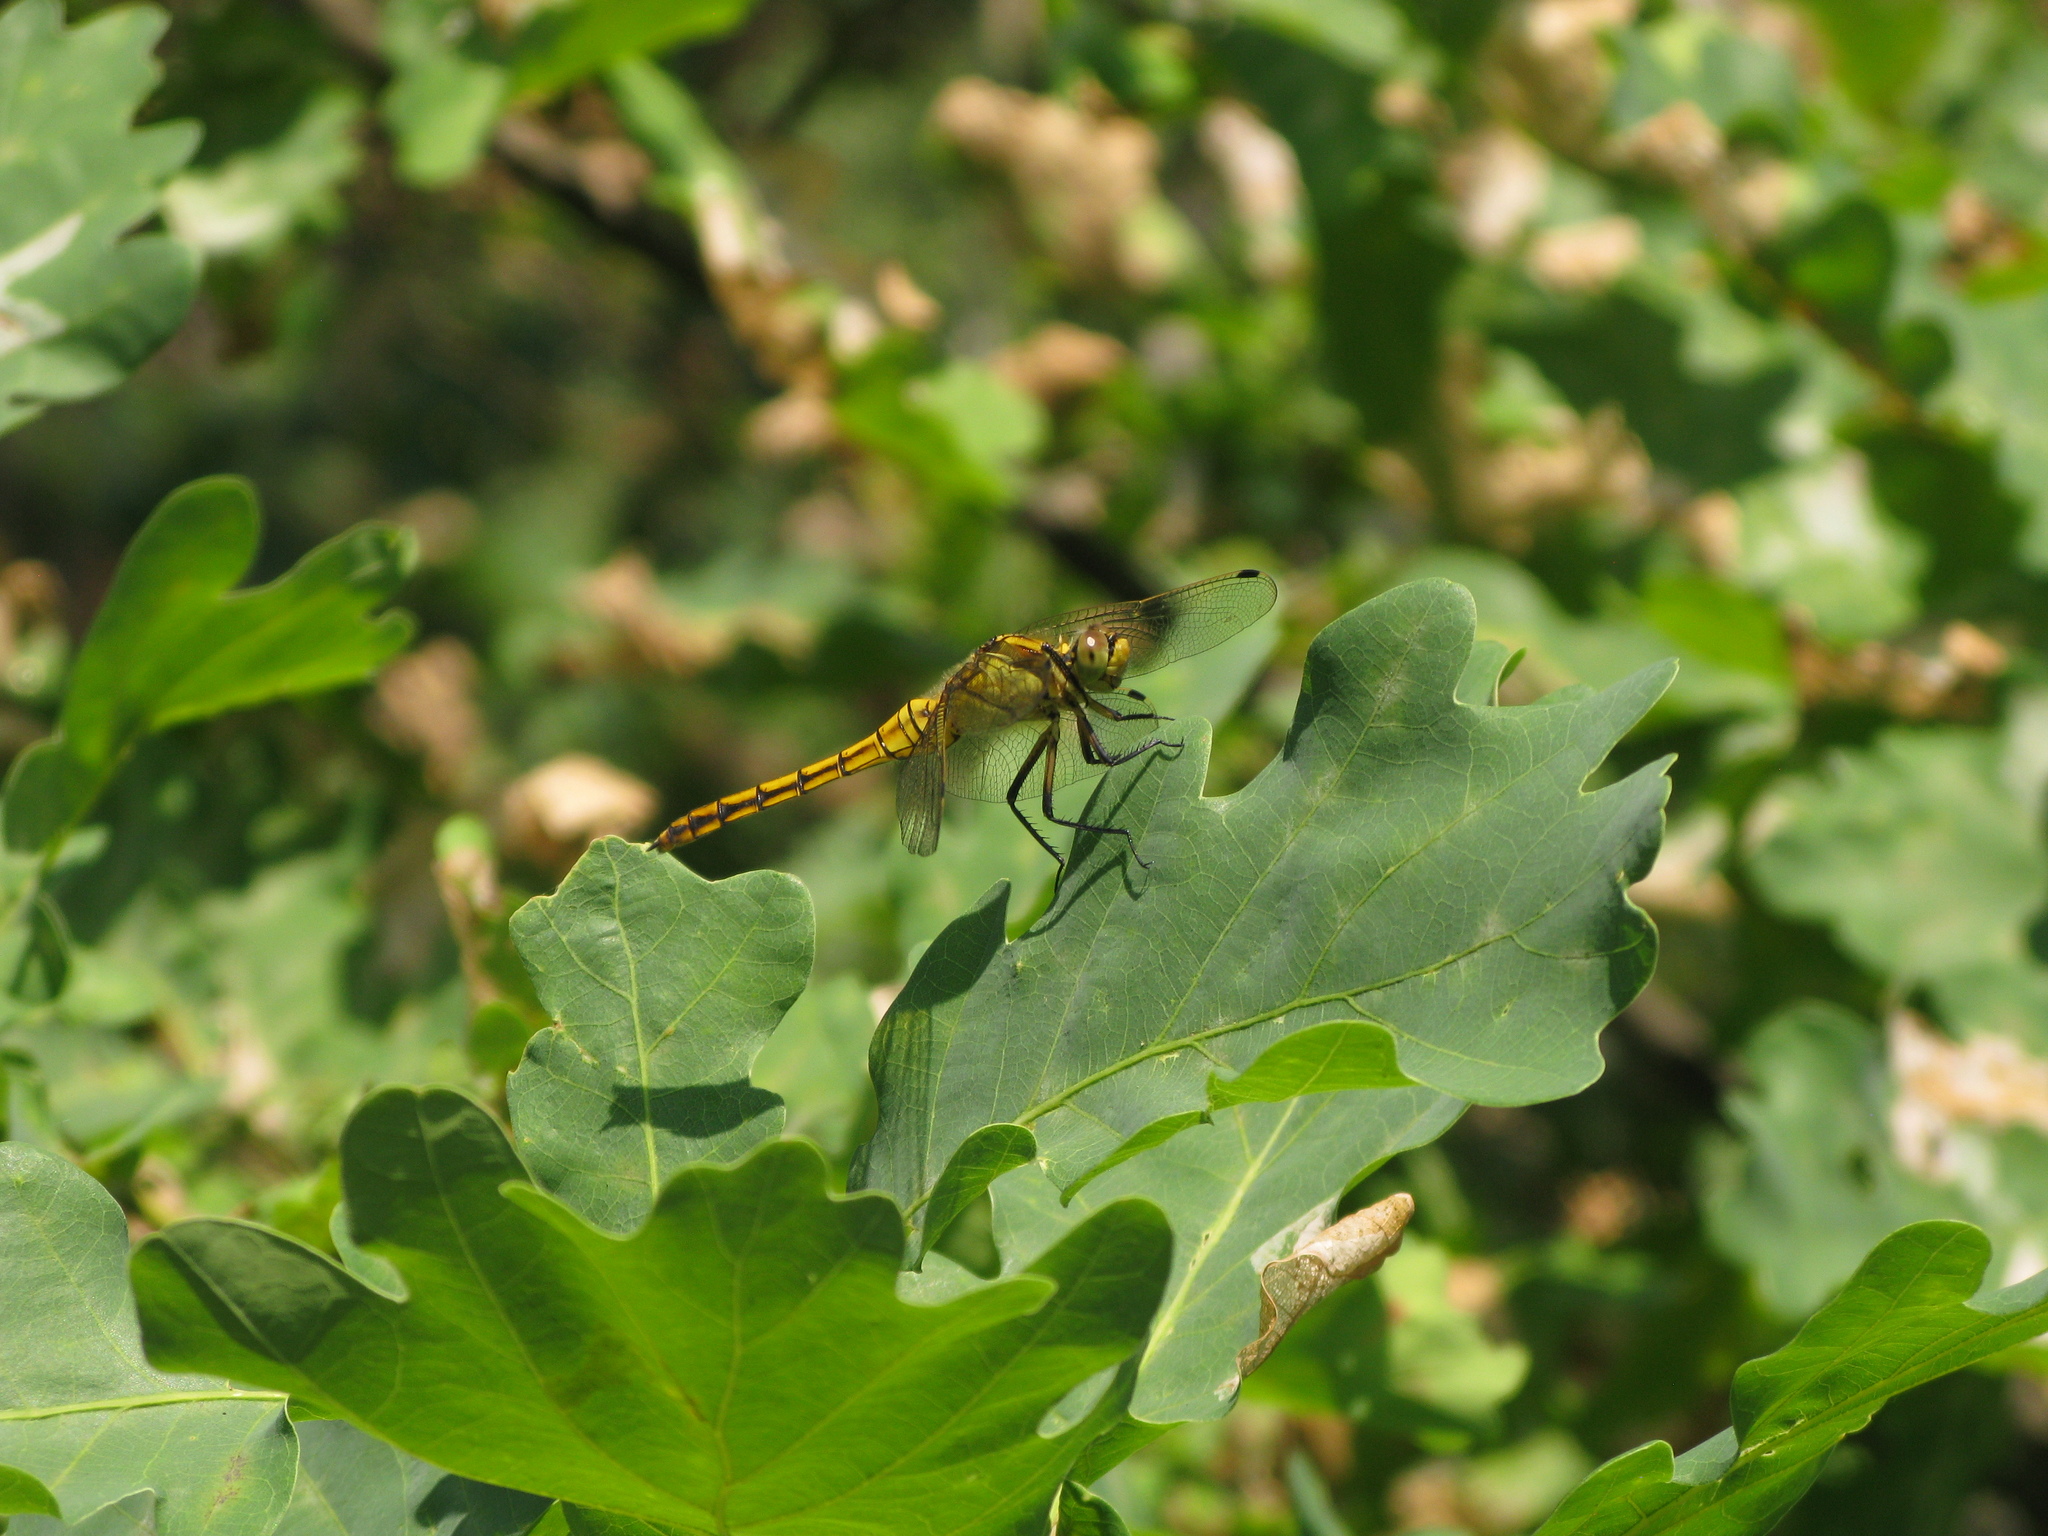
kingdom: Animalia
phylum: Arthropoda
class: Insecta
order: Odonata
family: Libellulidae
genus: Orthetrum
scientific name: Orthetrum cancellatum
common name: Black-tailed skimmer
